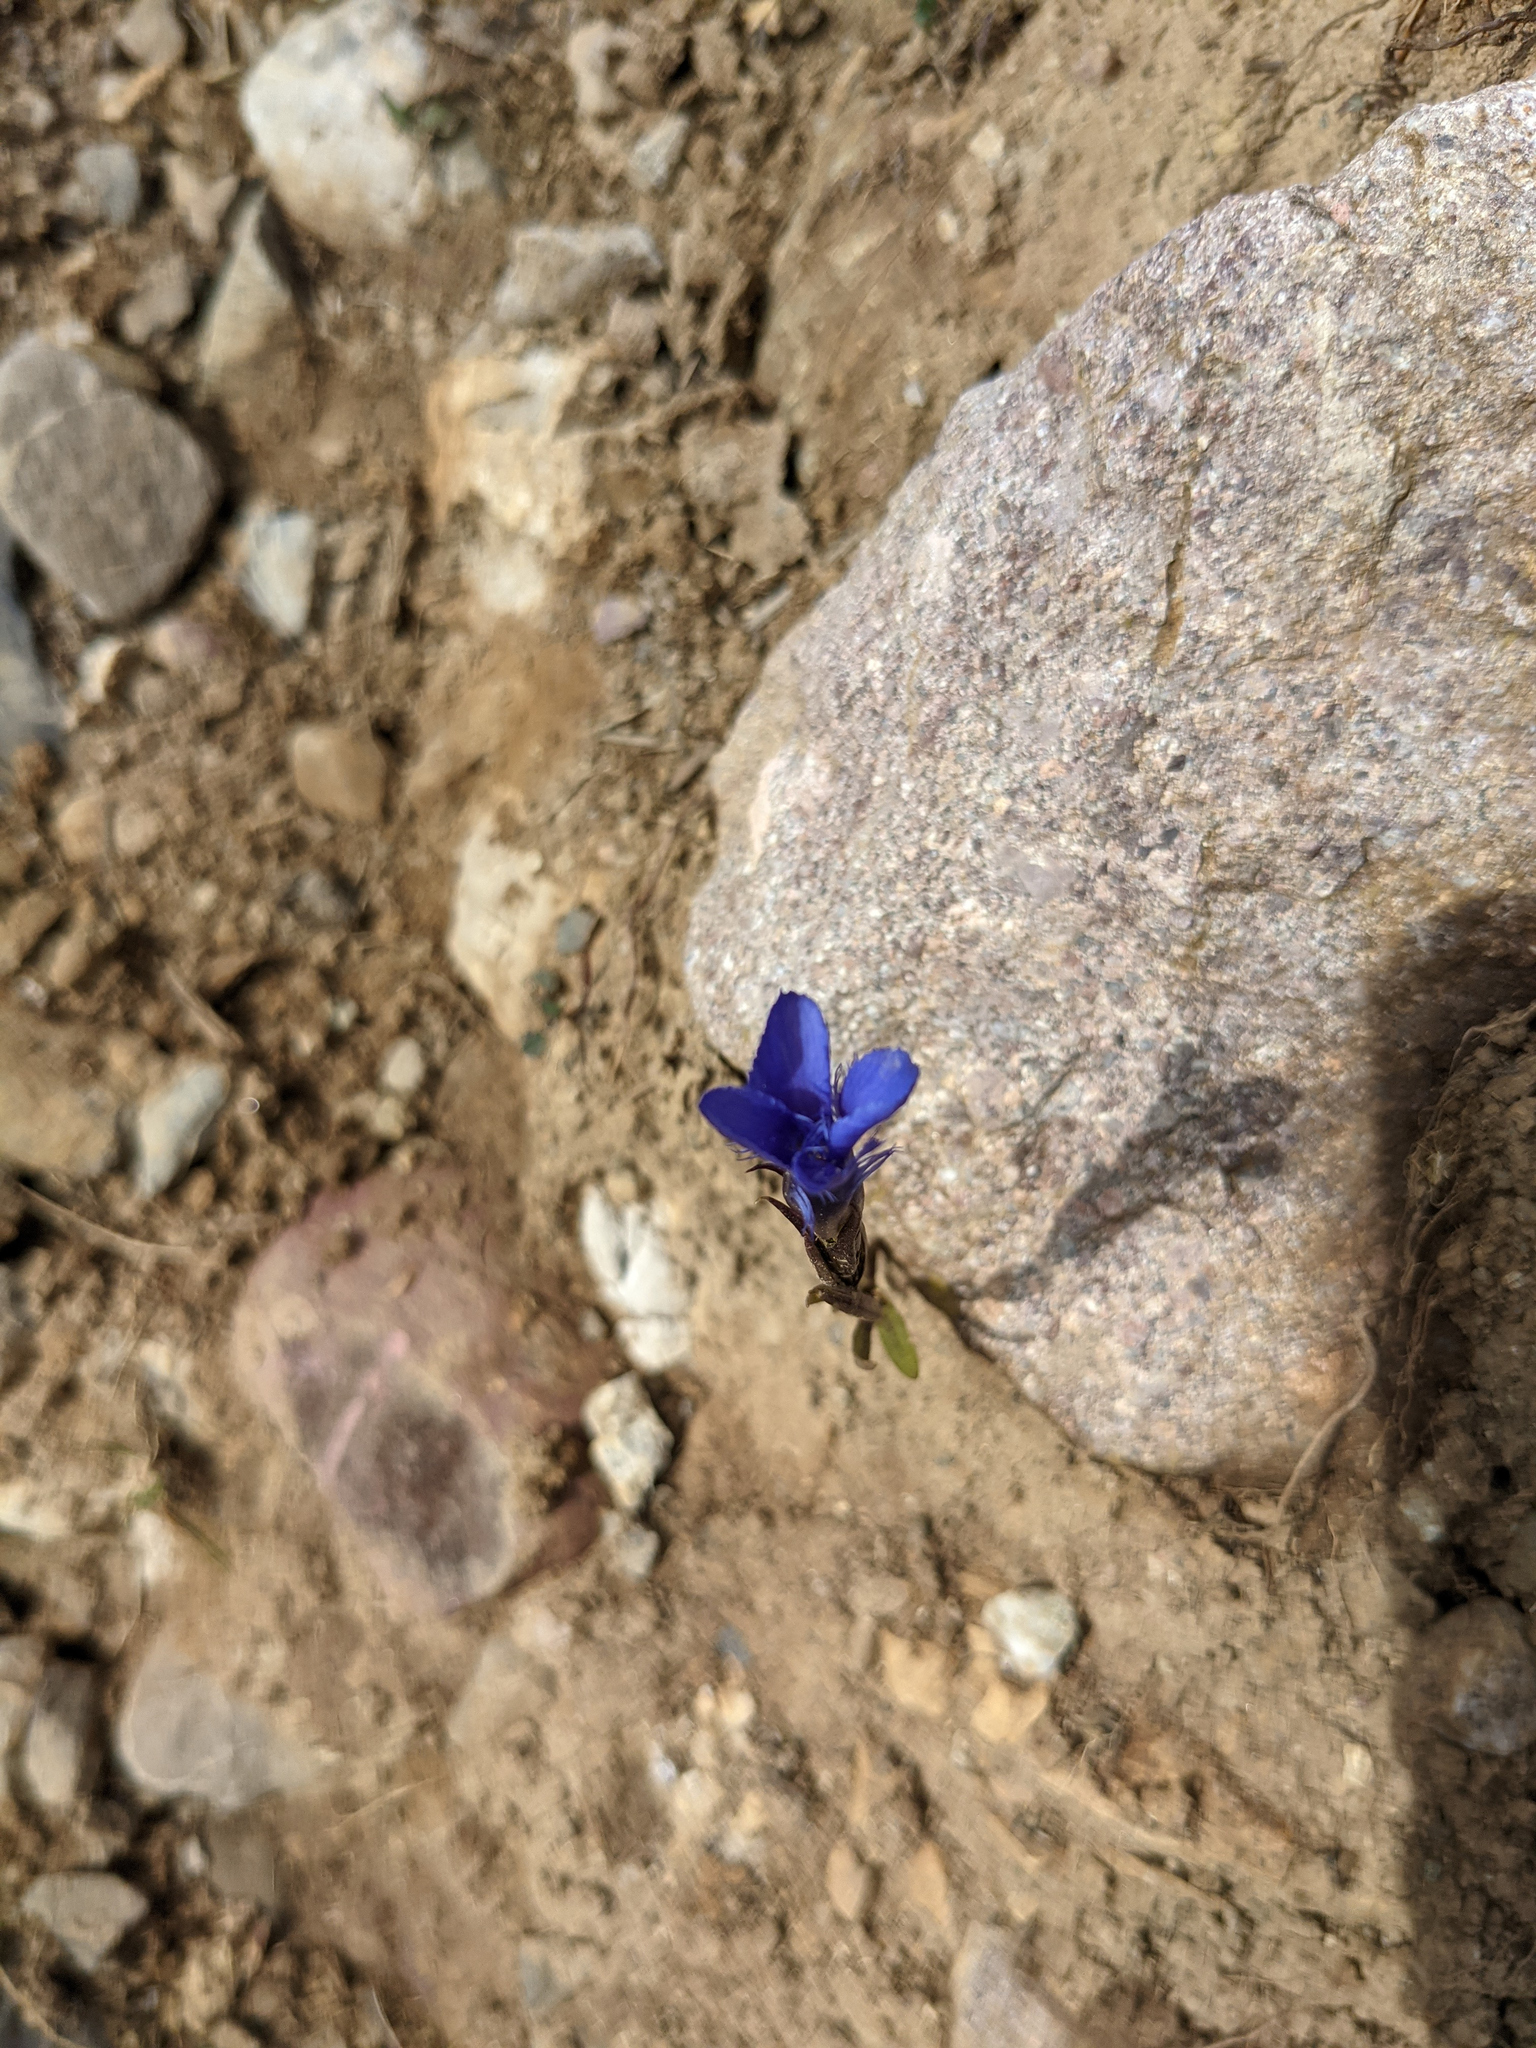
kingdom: Plantae
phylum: Tracheophyta
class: Magnoliopsida
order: Gentianales
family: Gentianaceae
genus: Gentianopsis
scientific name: Gentianopsis ciliata
